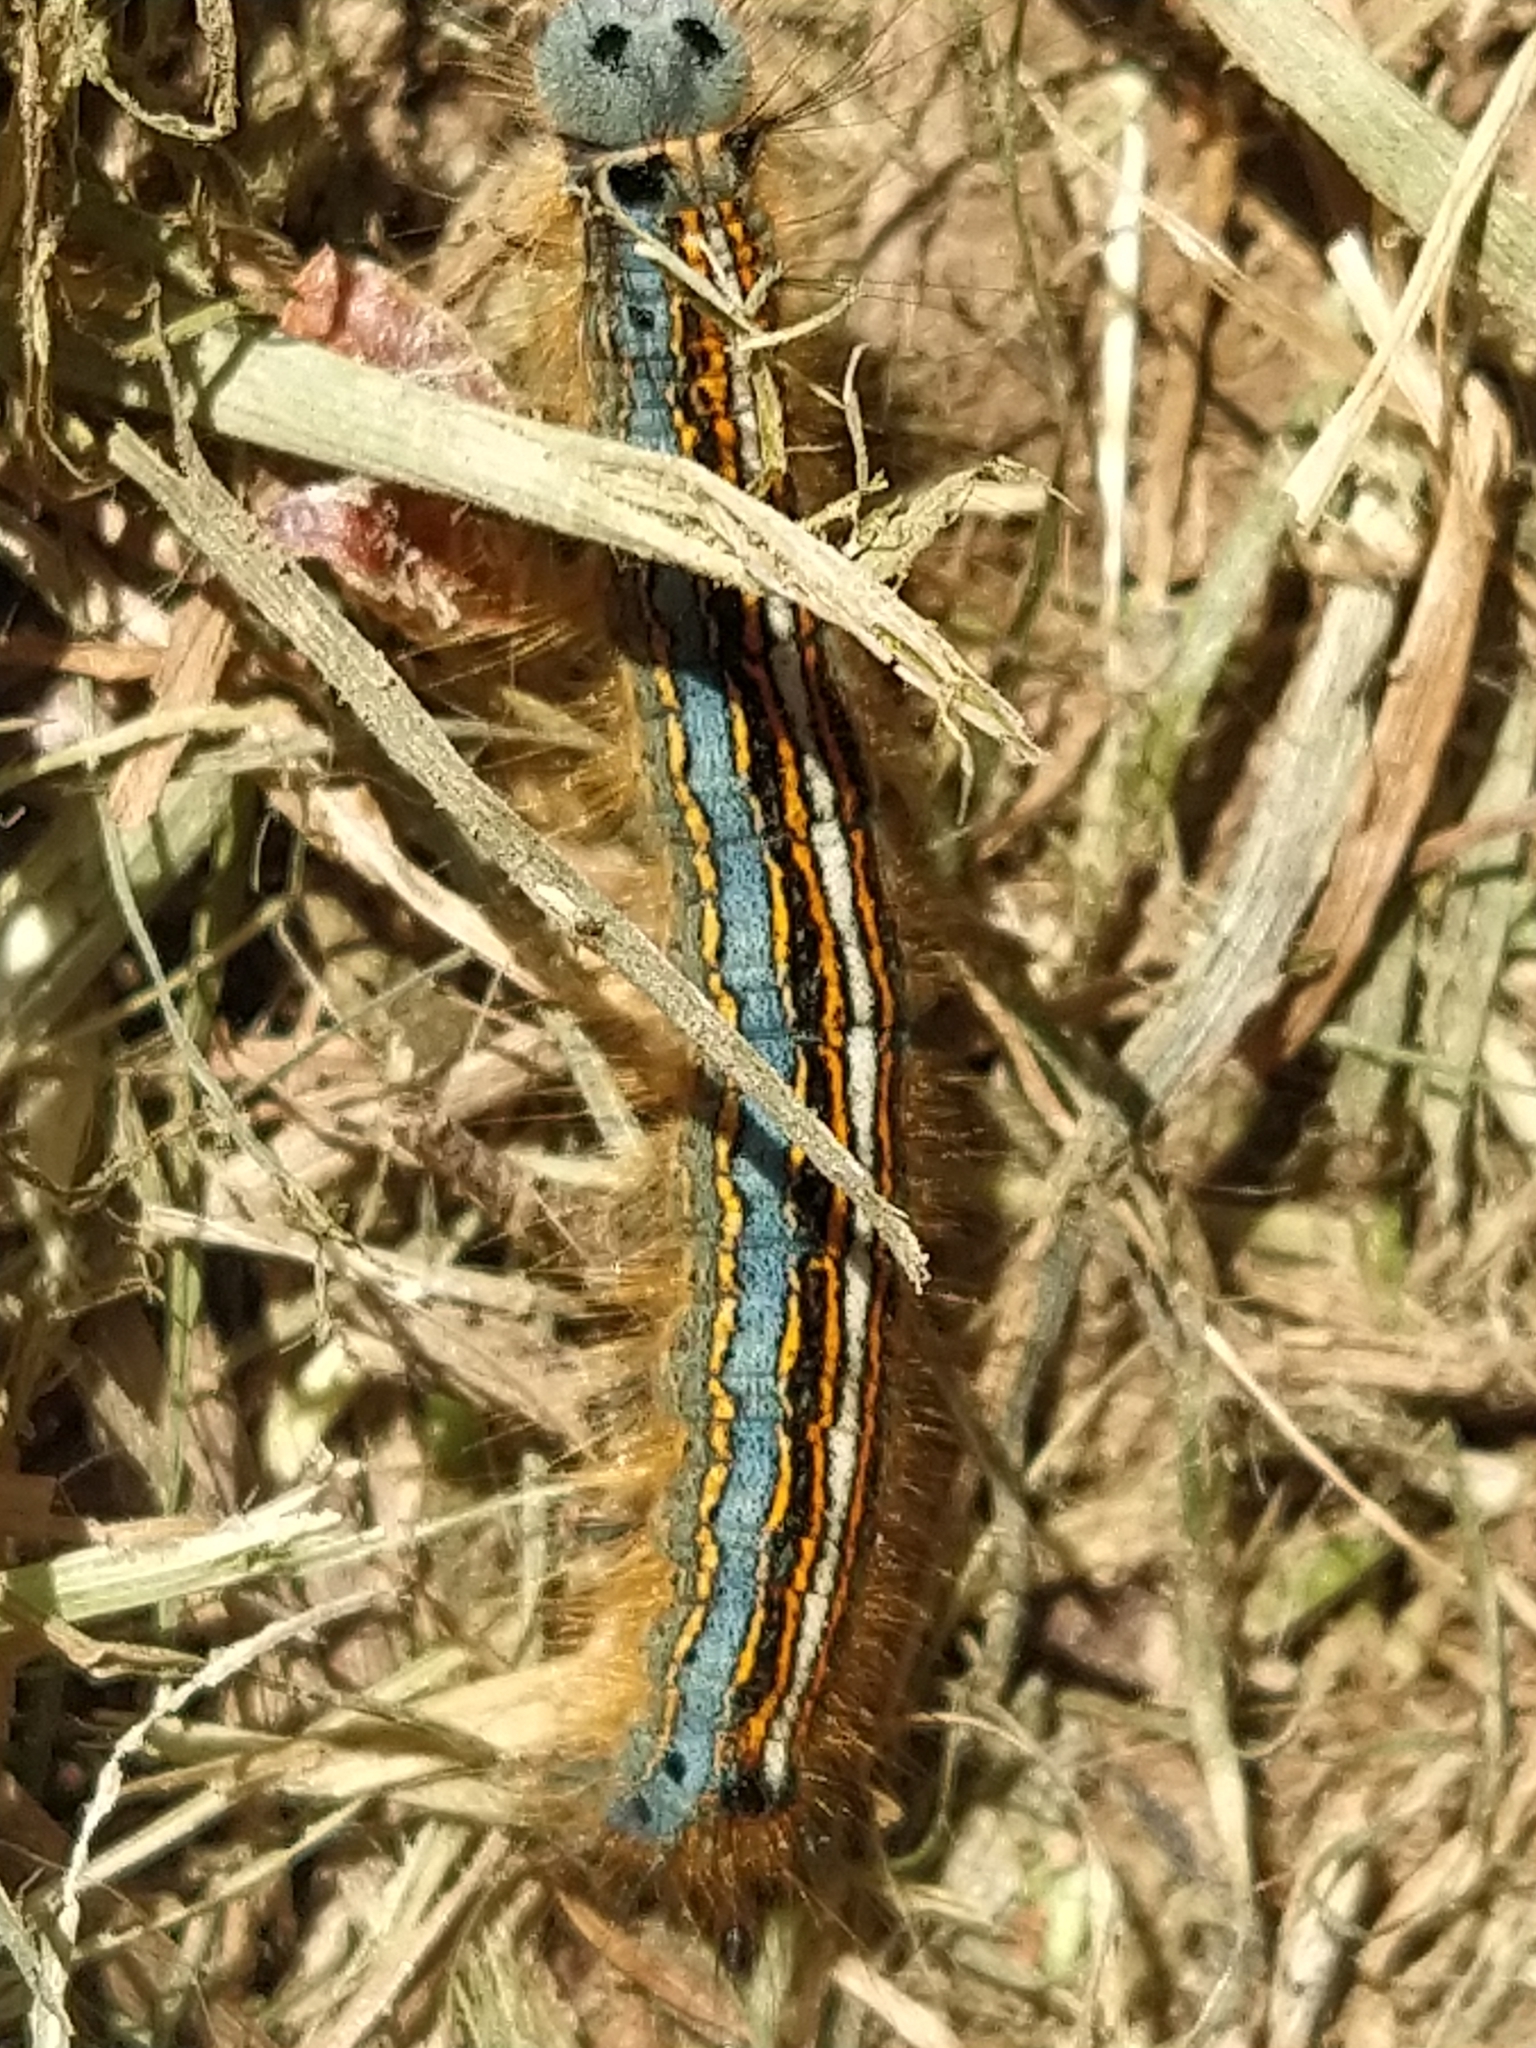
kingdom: Animalia
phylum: Arthropoda
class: Insecta
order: Lepidoptera
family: Lasiocampidae
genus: Malacosoma
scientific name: Malacosoma neustria
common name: The lackey
